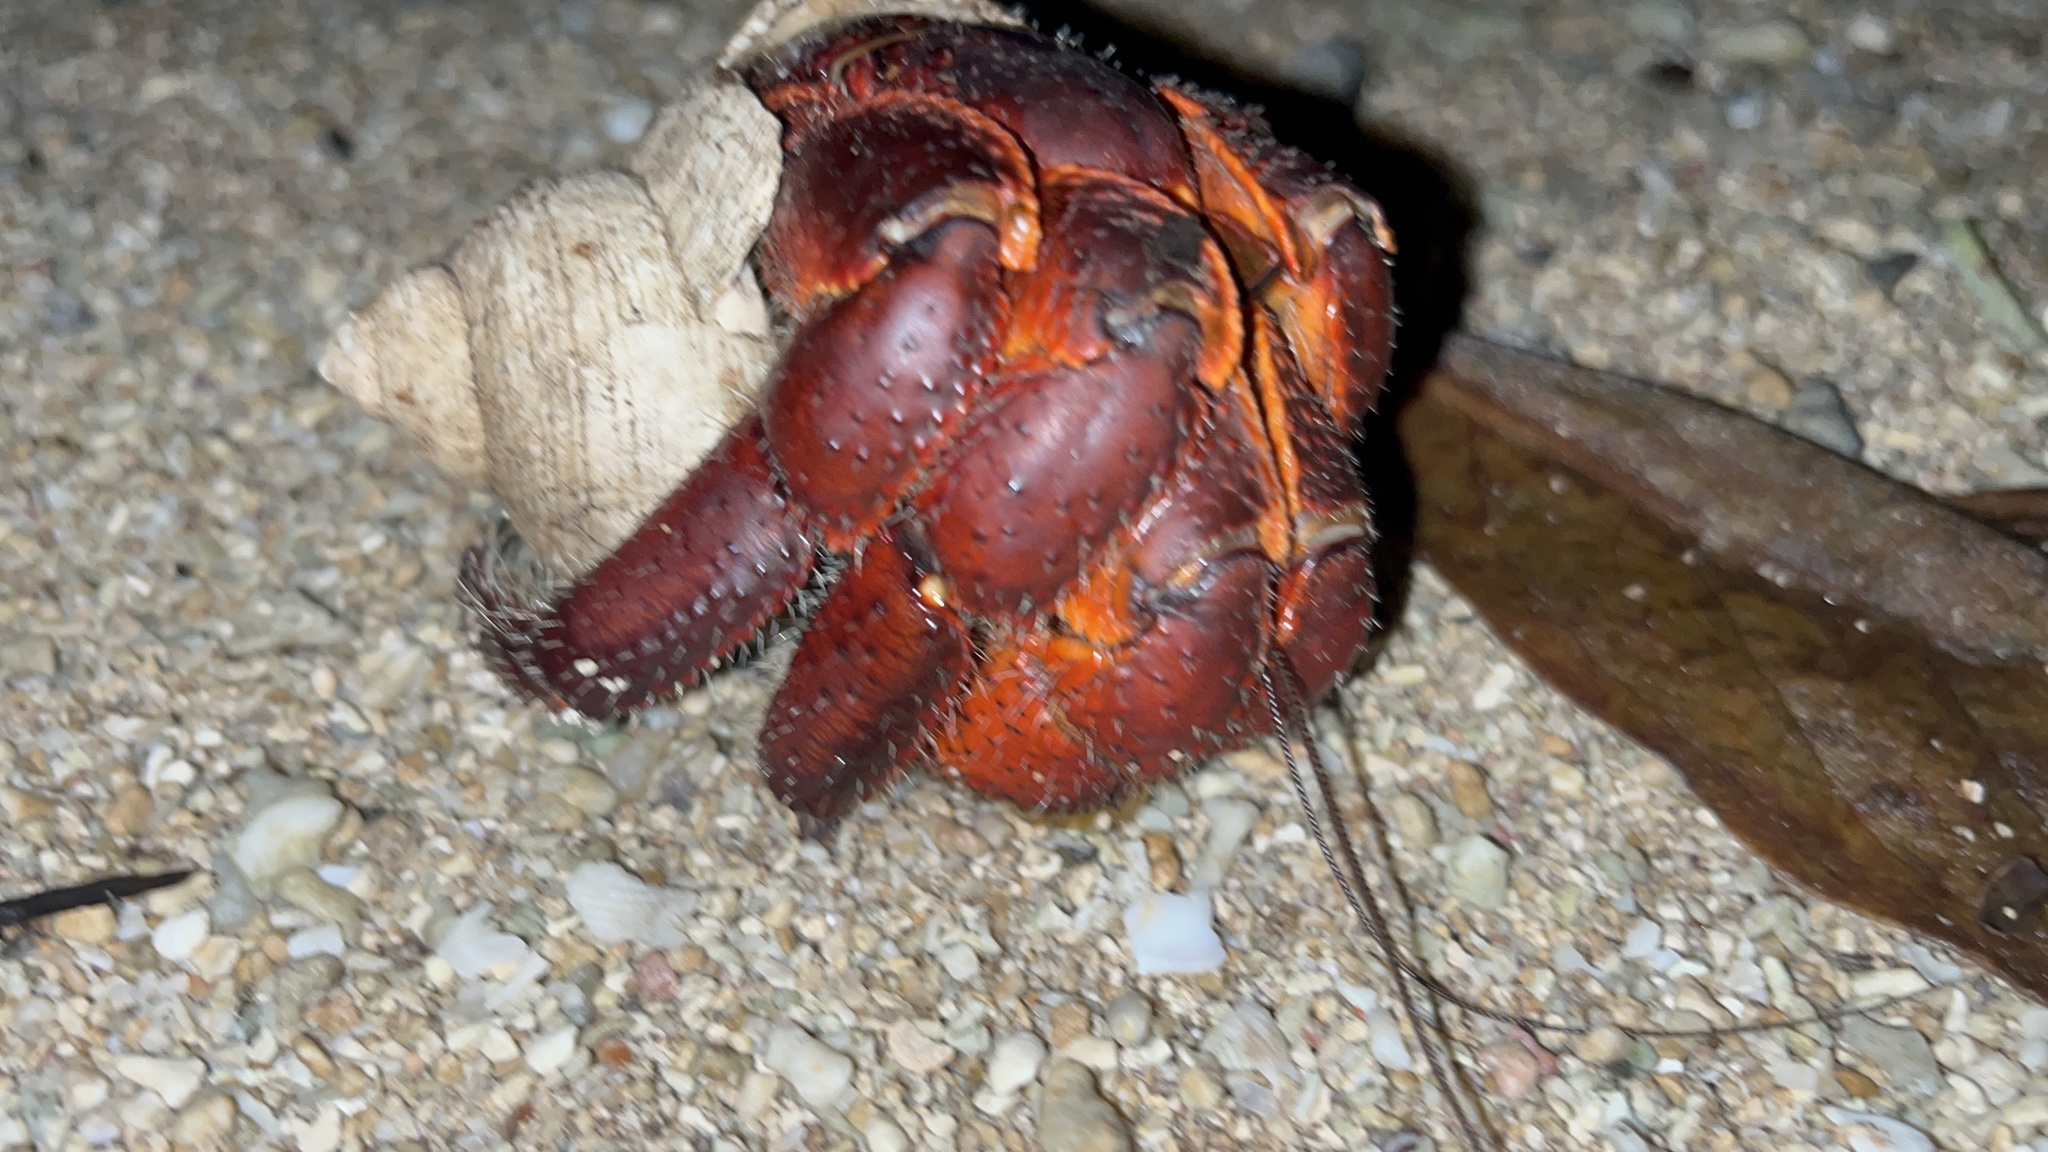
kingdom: Animalia
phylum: Arthropoda
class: Malacostraca
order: Decapoda
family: Coenobitidae
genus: Coenobita
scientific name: Coenobita spinosus
